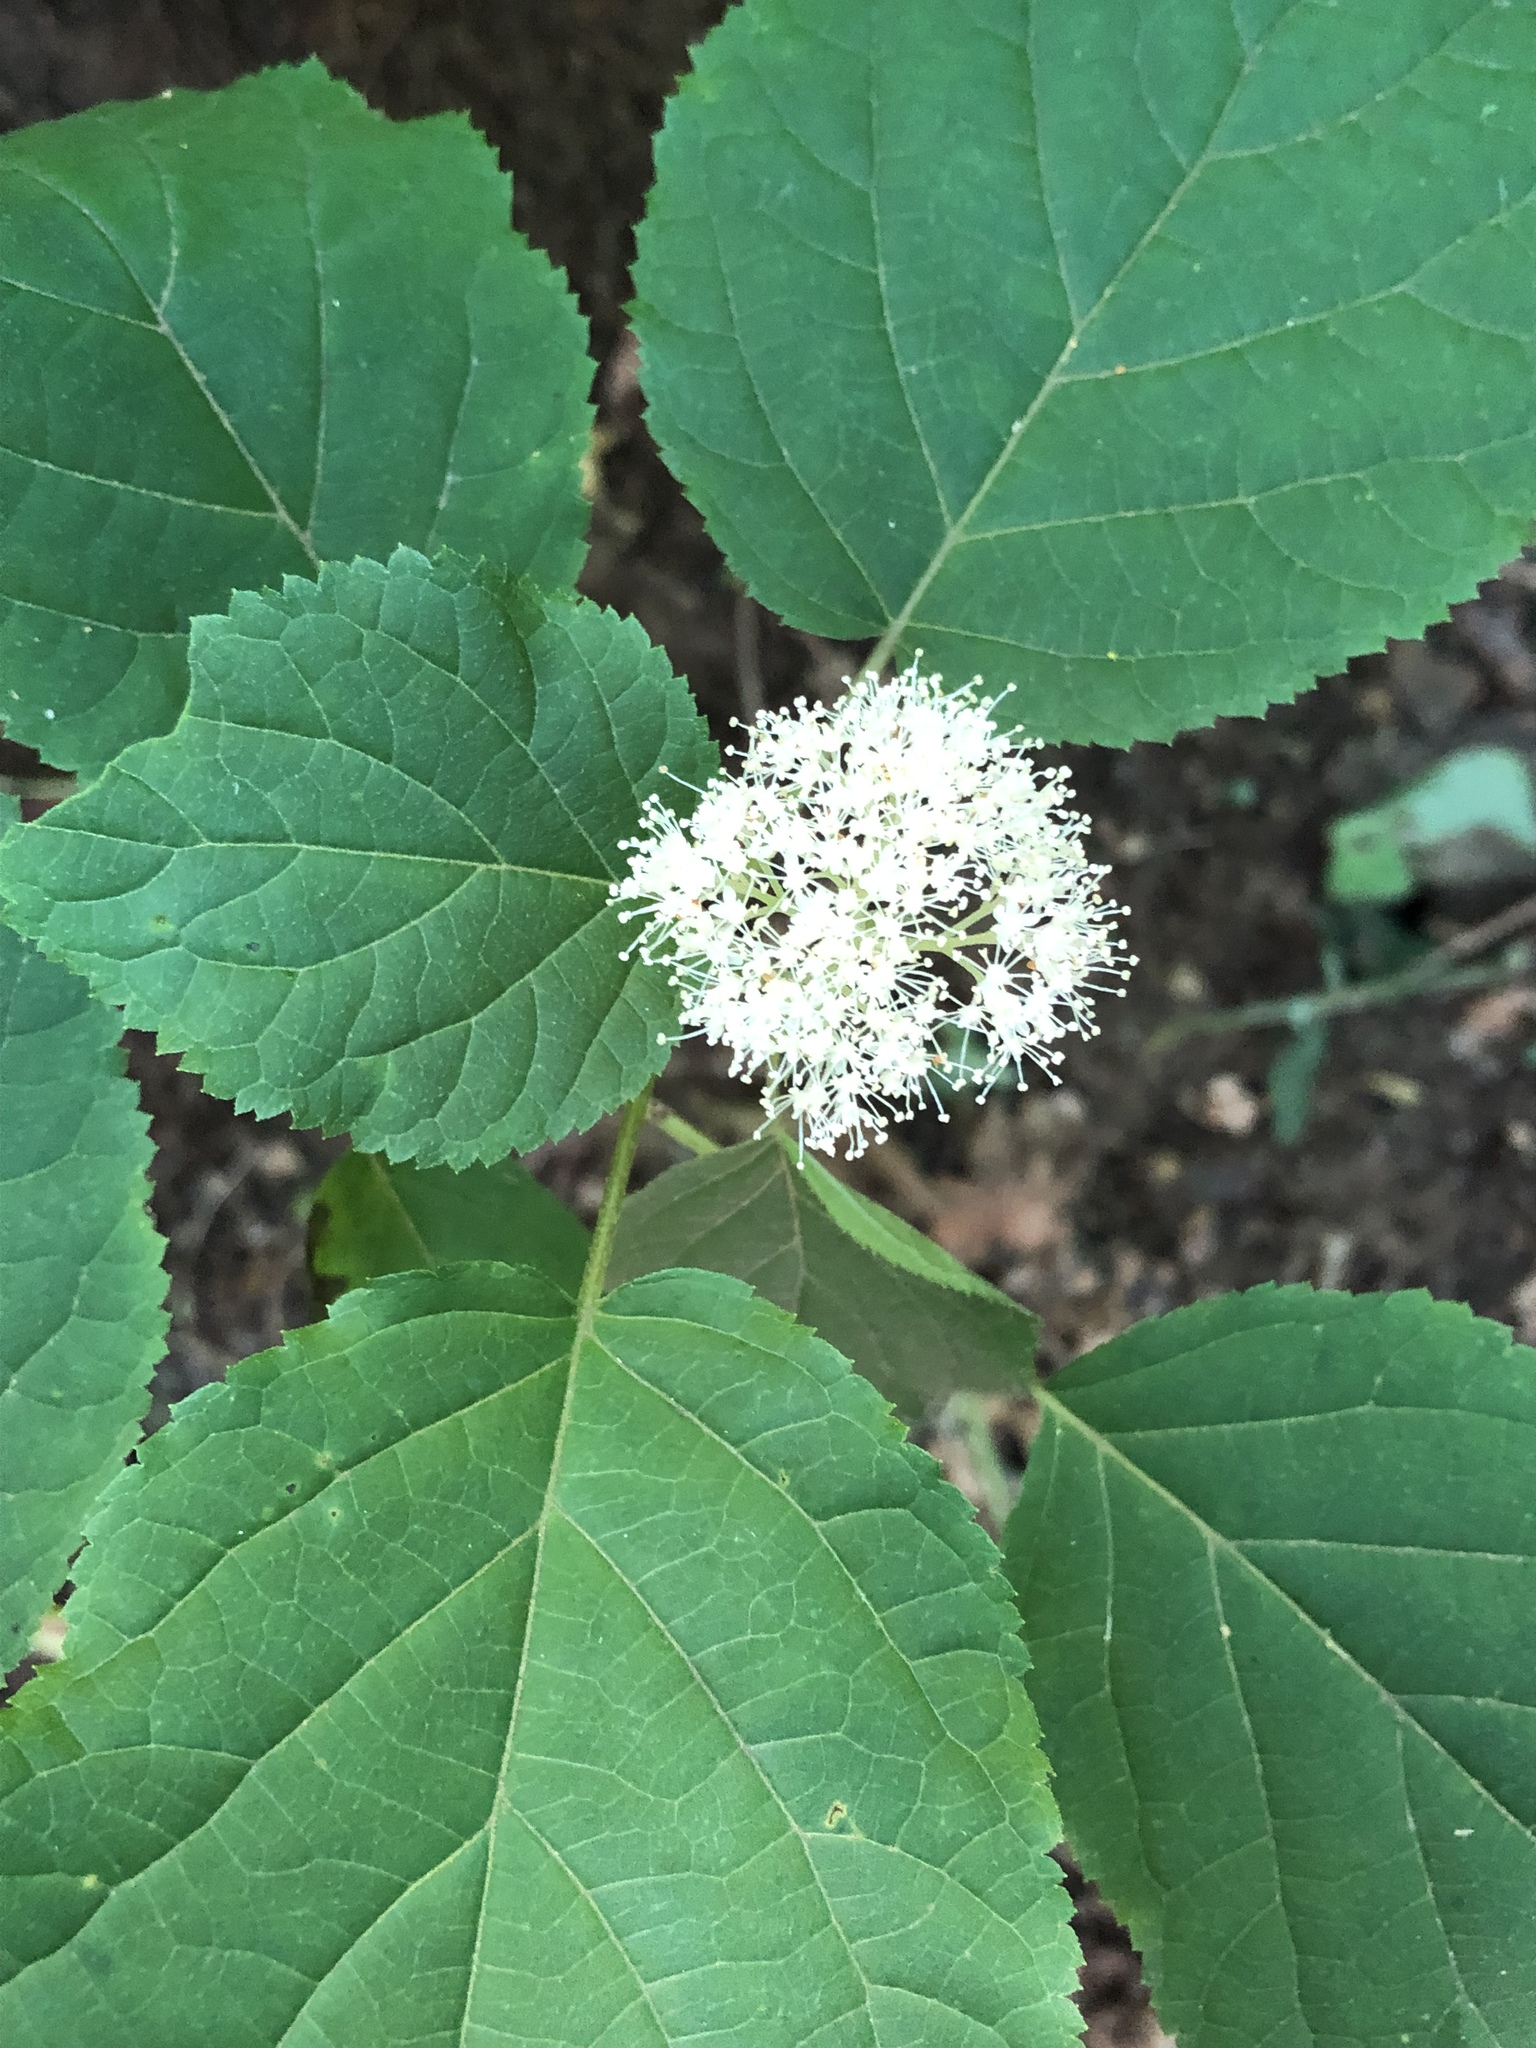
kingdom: Plantae
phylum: Tracheophyta
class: Magnoliopsida
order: Cornales
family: Hydrangeaceae
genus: Hydrangea
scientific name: Hydrangea arborescens
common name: Sevenbark
